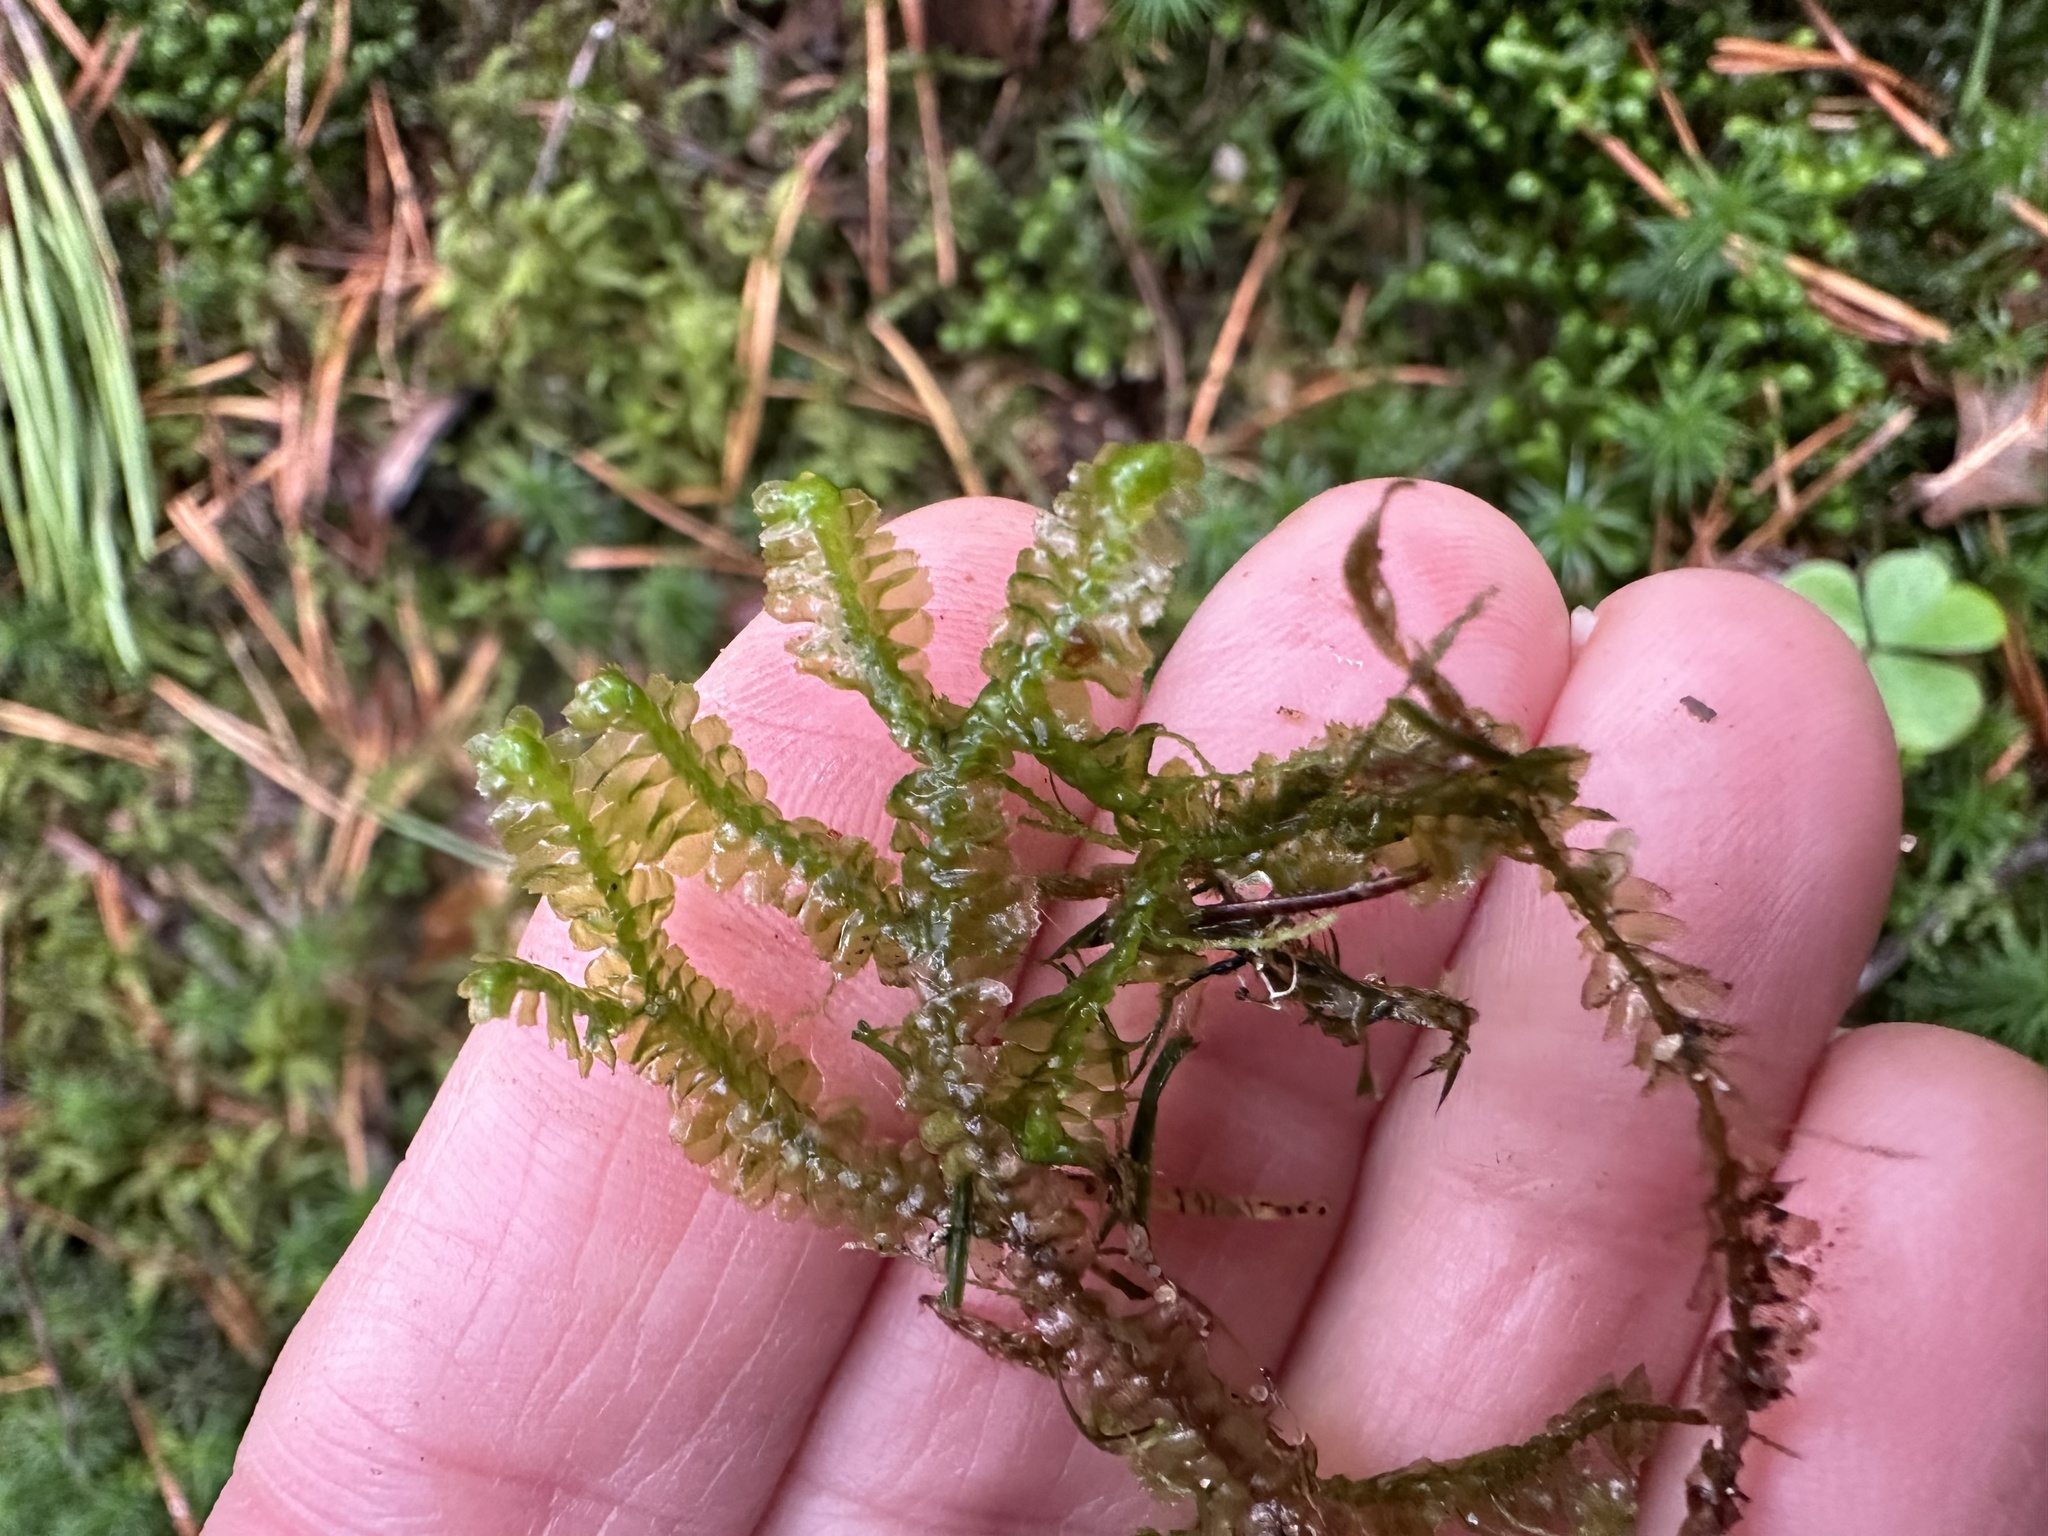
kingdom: Plantae
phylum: Marchantiophyta
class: Jungermanniopsida
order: Jungermanniales
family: Lepidoziaceae
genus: Bazzania
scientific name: Bazzania trilobata
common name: Three-lobed whipwort
